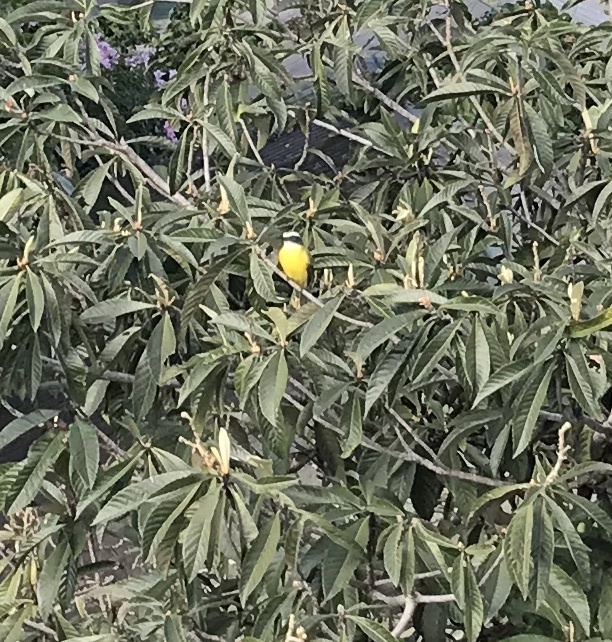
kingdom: Animalia
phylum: Chordata
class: Aves
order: Passeriformes
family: Tyrannidae
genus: Myiozetetes
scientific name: Myiozetetes similis
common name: Social flycatcher
